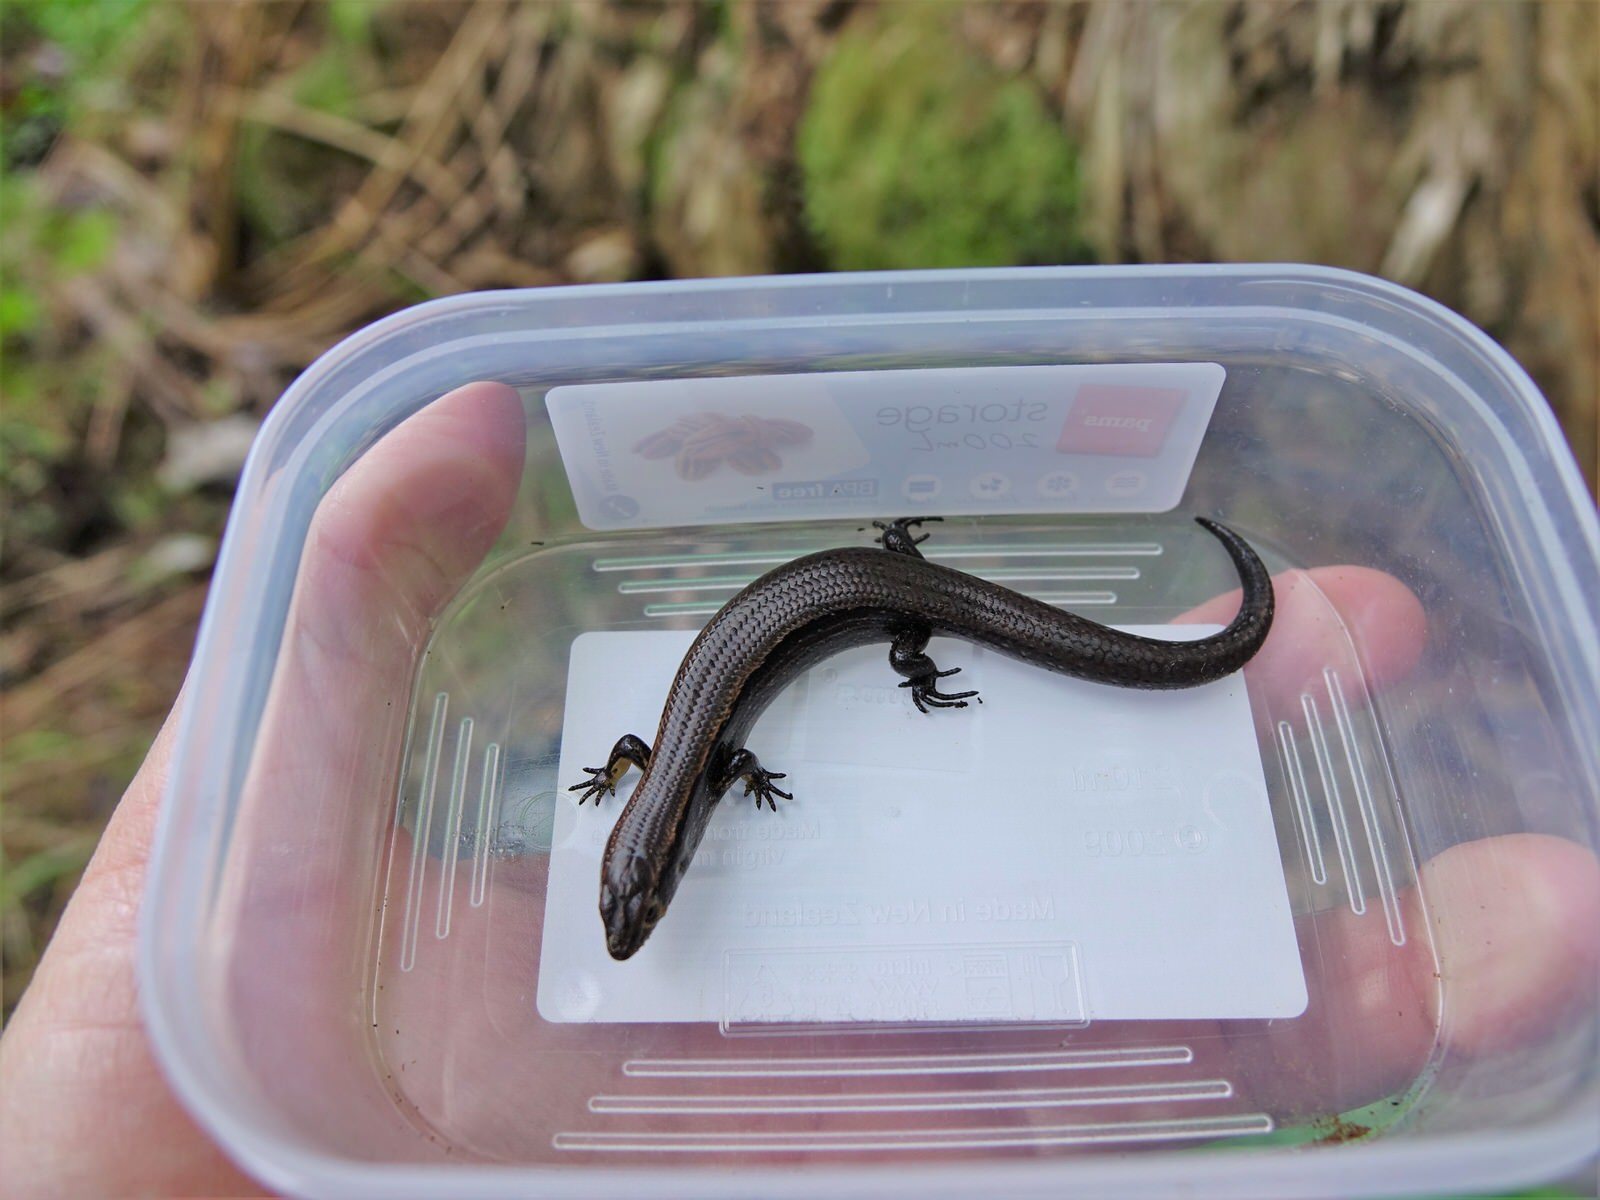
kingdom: Animalia
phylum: Chordata
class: Squamata
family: Scincidae
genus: Oligosoma
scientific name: Oligosoma aeneum
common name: Copper skink
